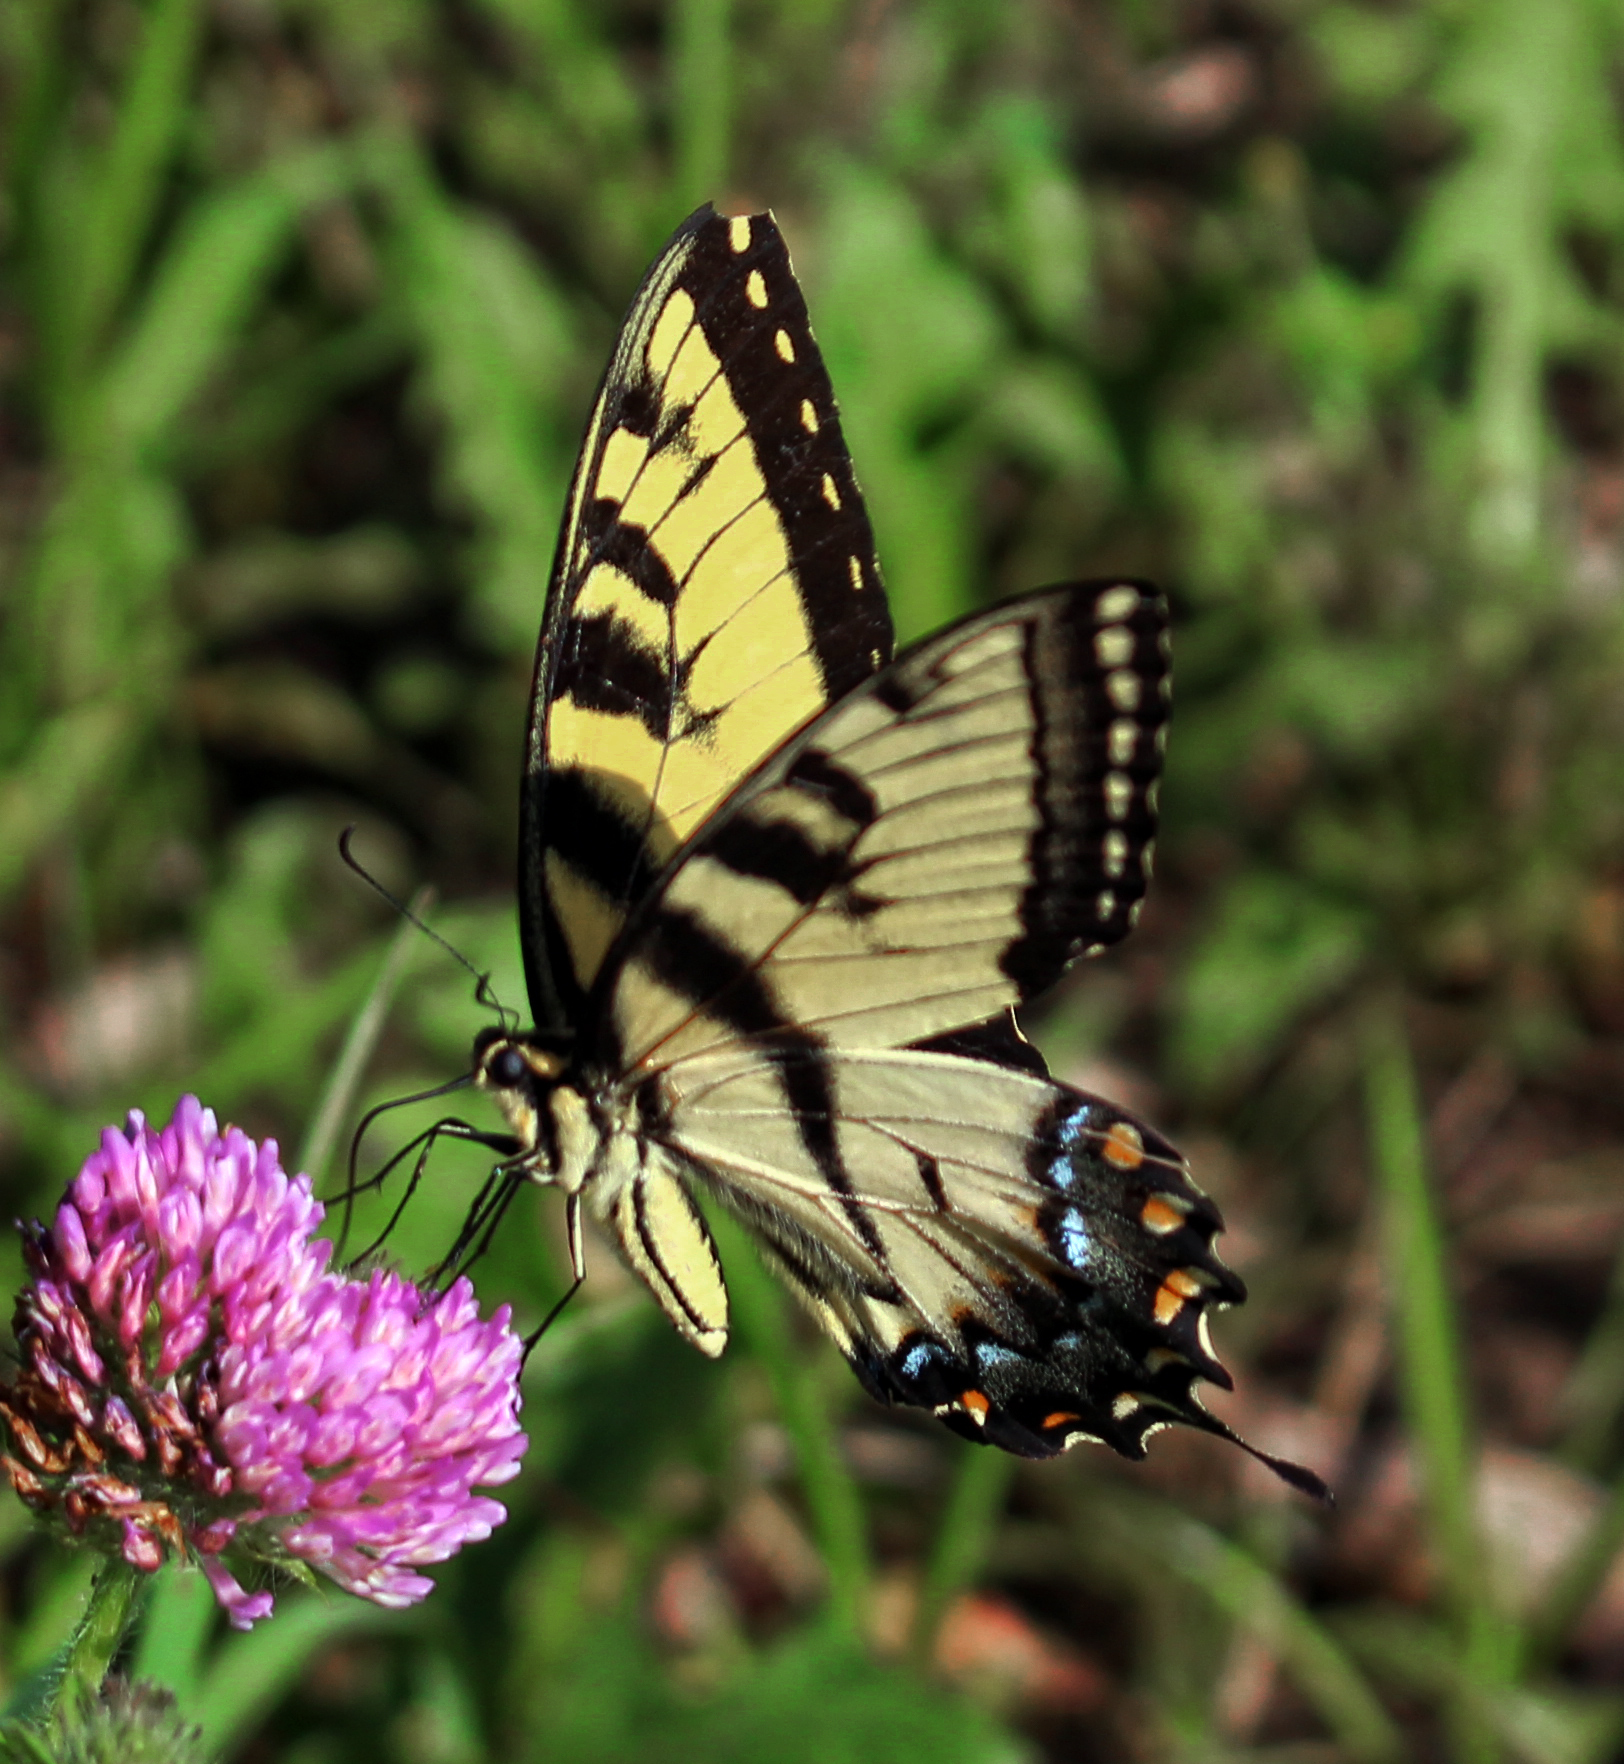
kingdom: Animalia
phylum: Arthropoda
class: Insecta
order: Lepidoptera
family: Papilionidae
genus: Papilio
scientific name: Papilio glaucus
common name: Tiger swallowtail
